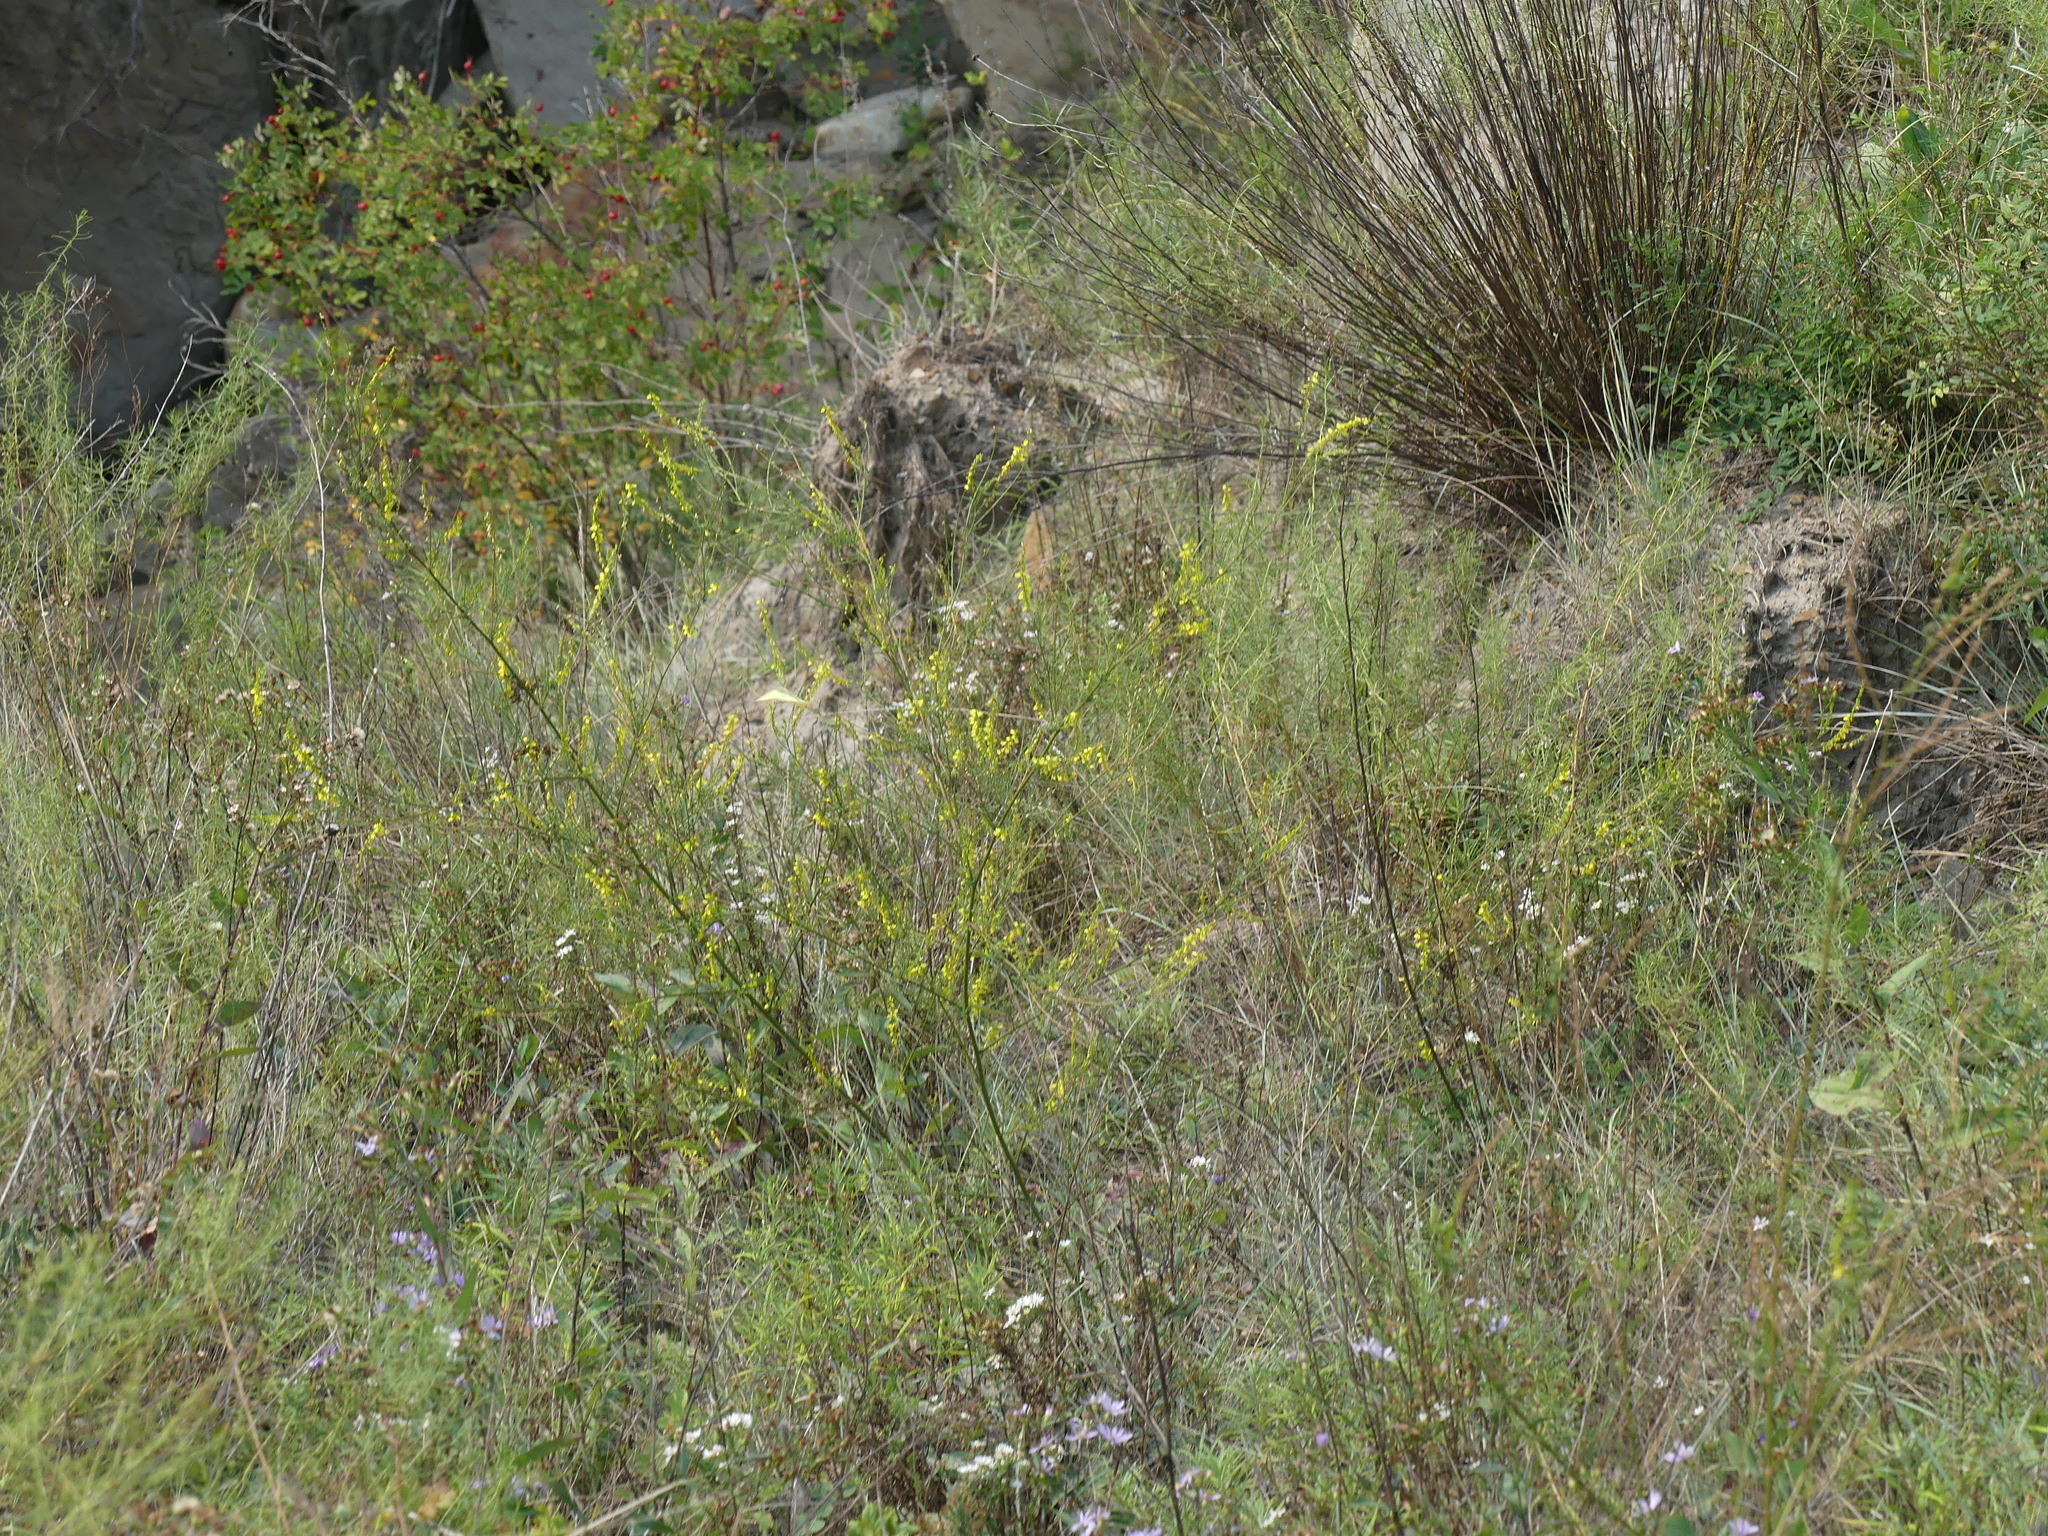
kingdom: Plantae
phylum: Tracheophyta
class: Magnoliopsida
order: Fabales
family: Fabaceae
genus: Melilotus
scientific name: Melilotus officinalis
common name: Sweetclover
